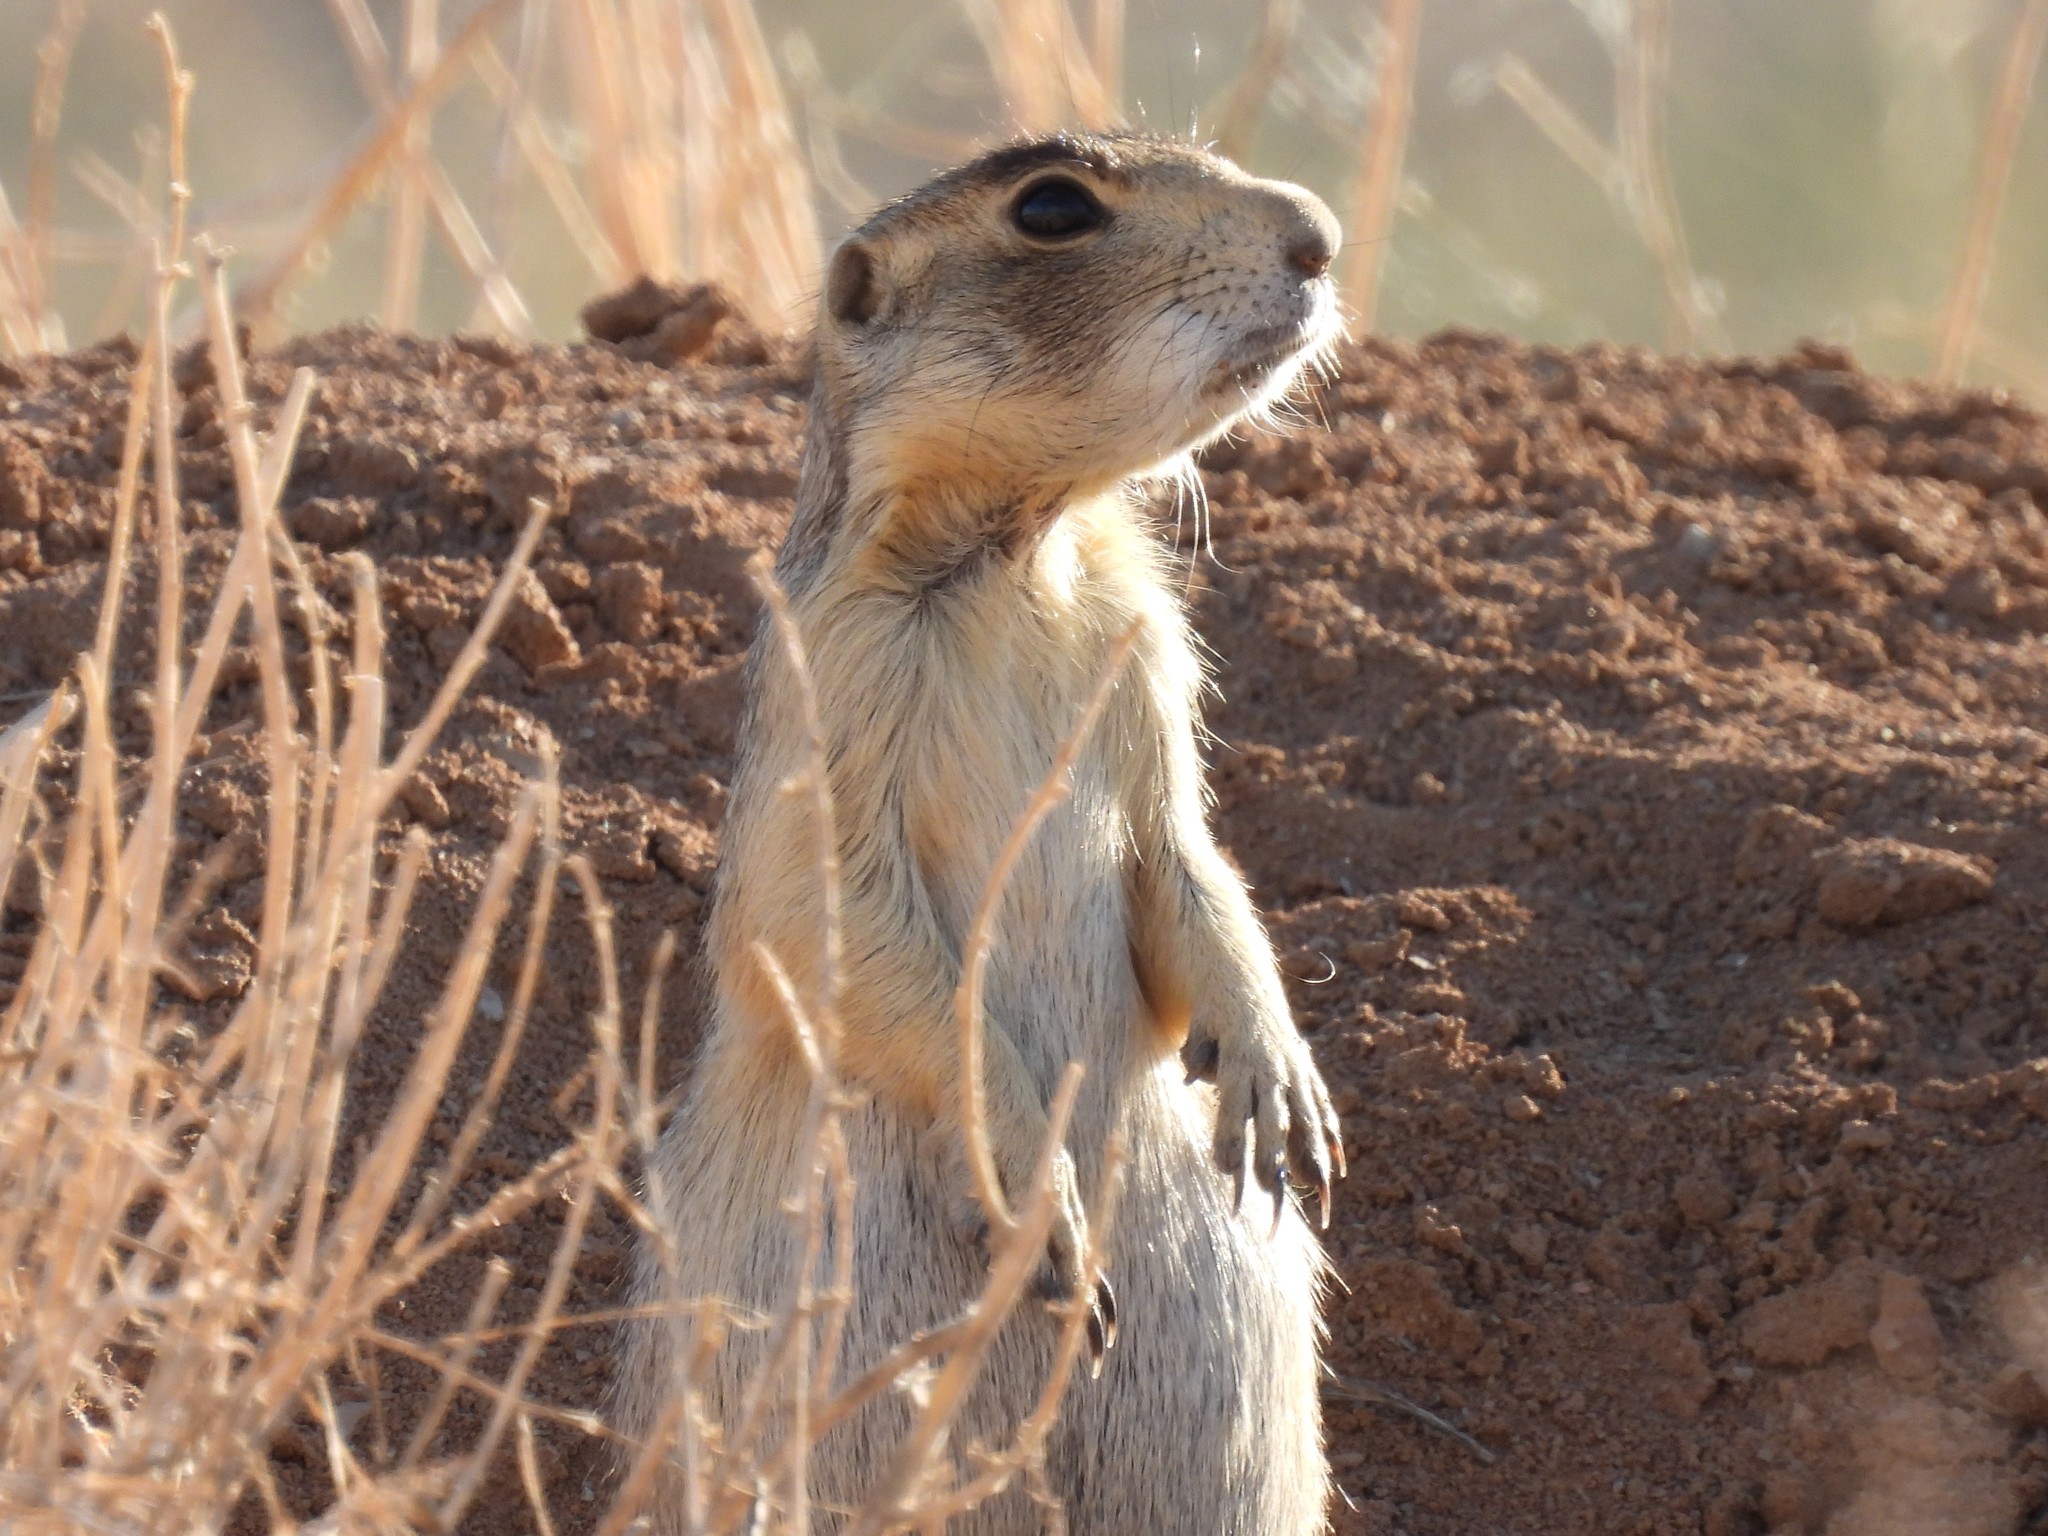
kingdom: Animalia
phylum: Chordata
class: Mammalia
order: Rodentia
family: Sciuridae
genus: Cynomys
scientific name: Cynomys leucurus
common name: White-tailed prairie dog
